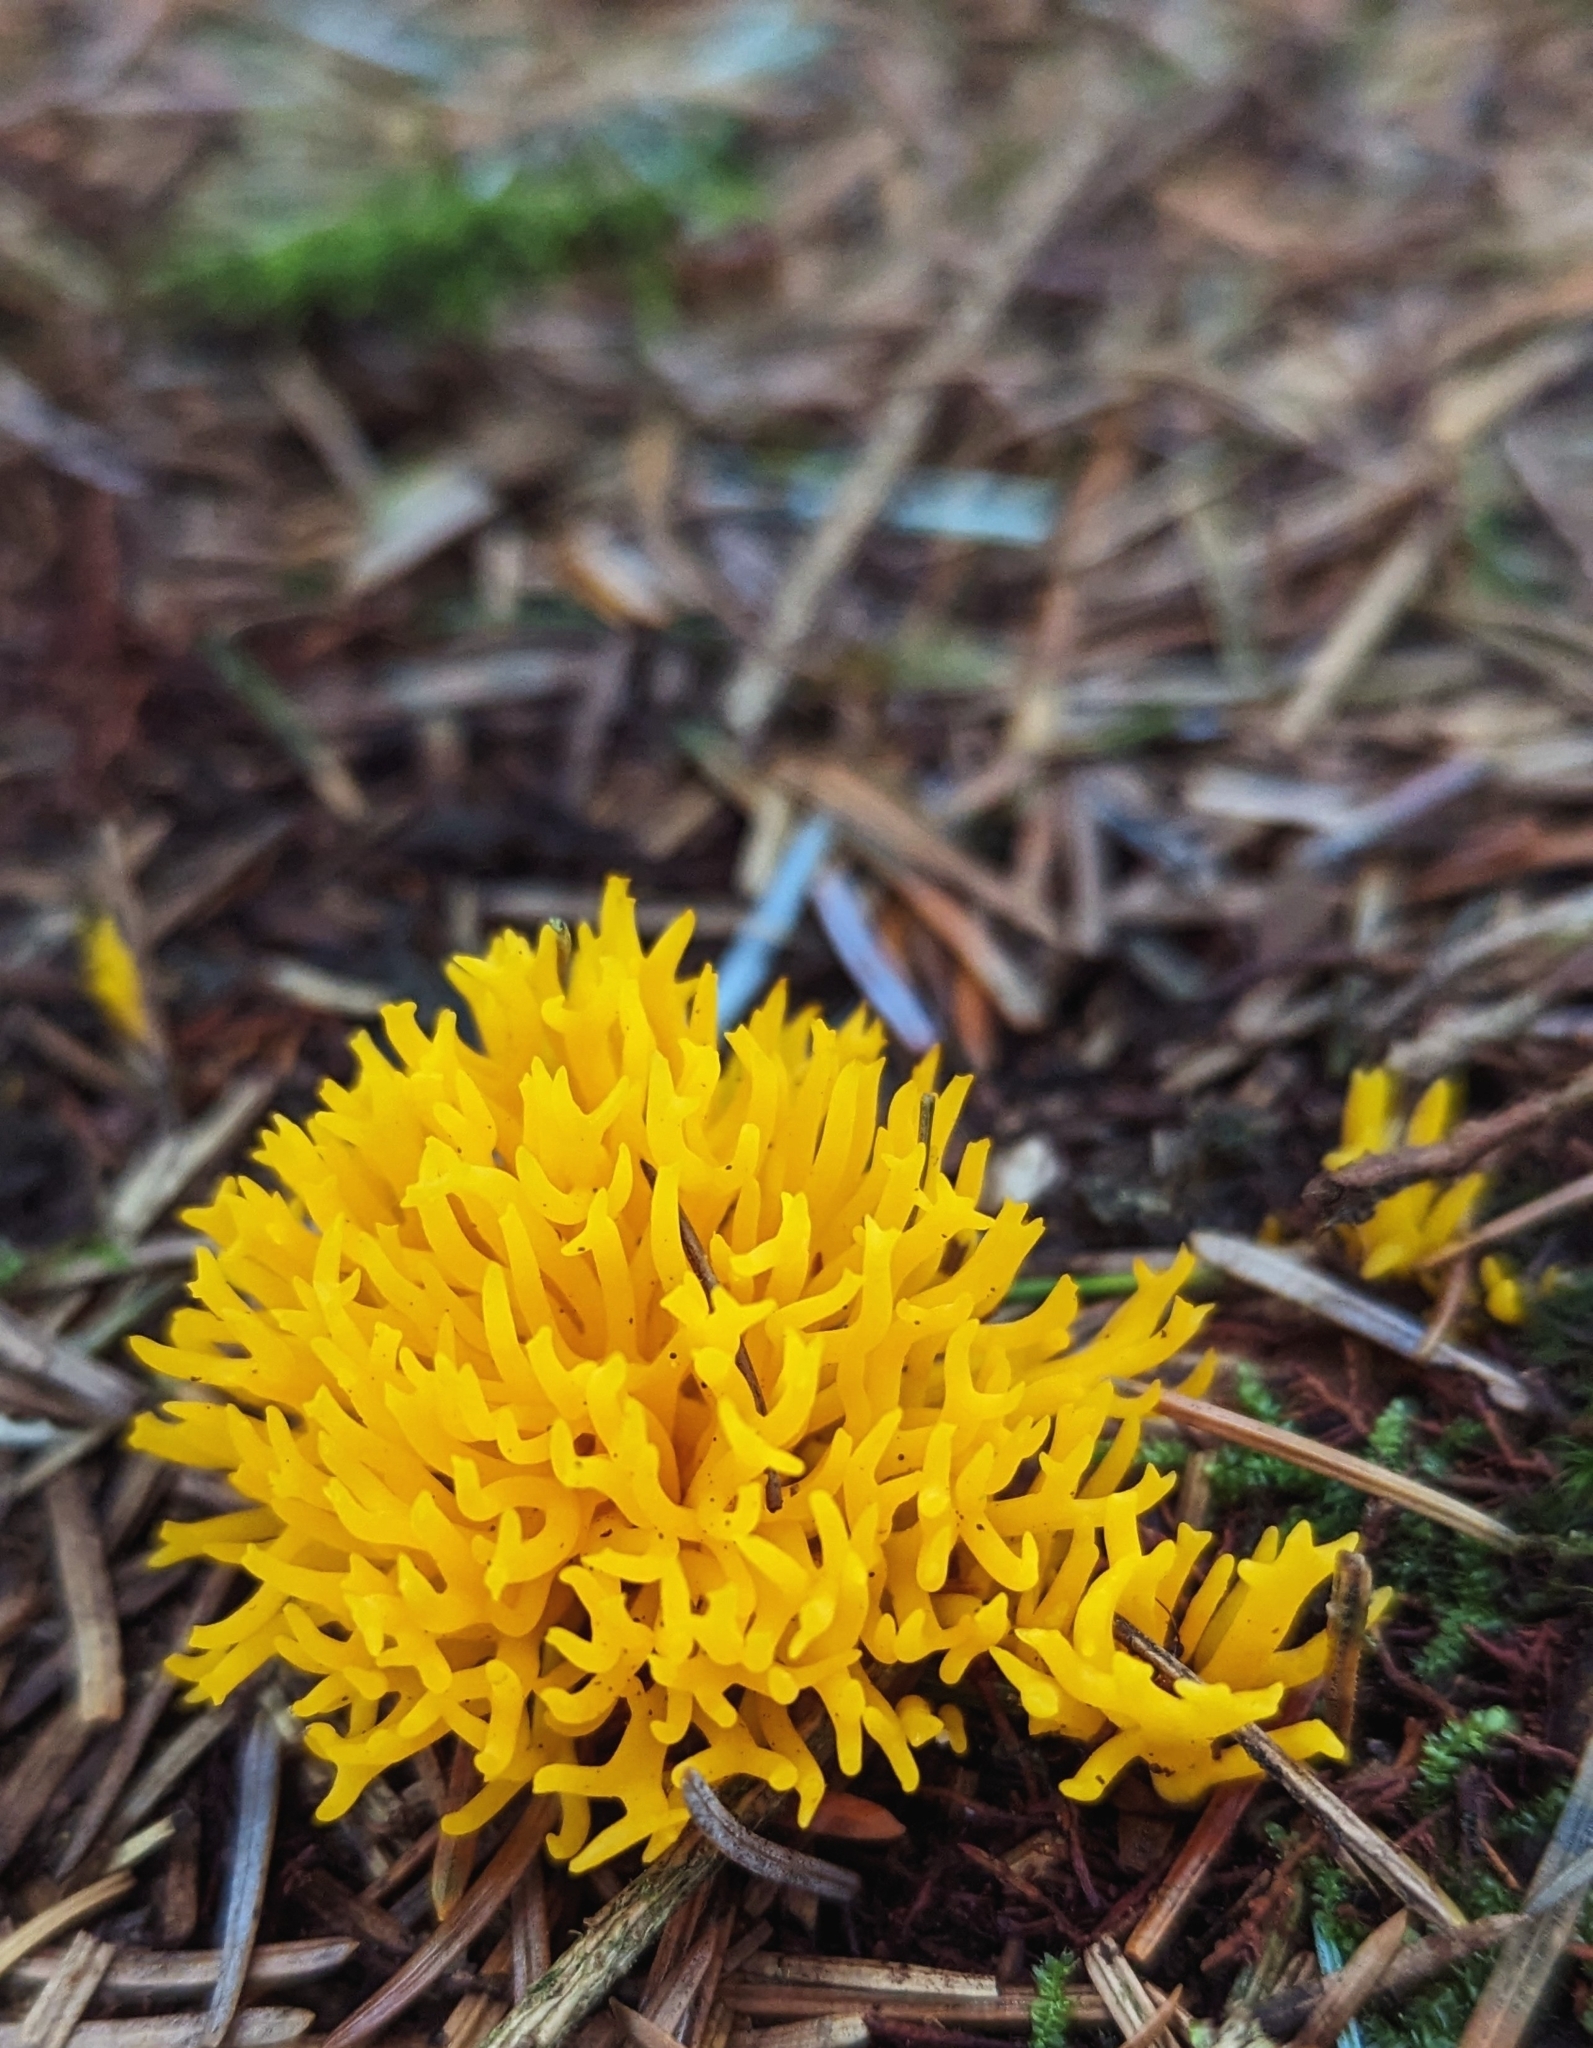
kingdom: Fungi
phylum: Basidiomycota
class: Dacrymycetes
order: Dacrymycetales
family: Dacrymycetaceae
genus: Calocera
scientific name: Calocera viscosa
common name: Yellow stagshorn
